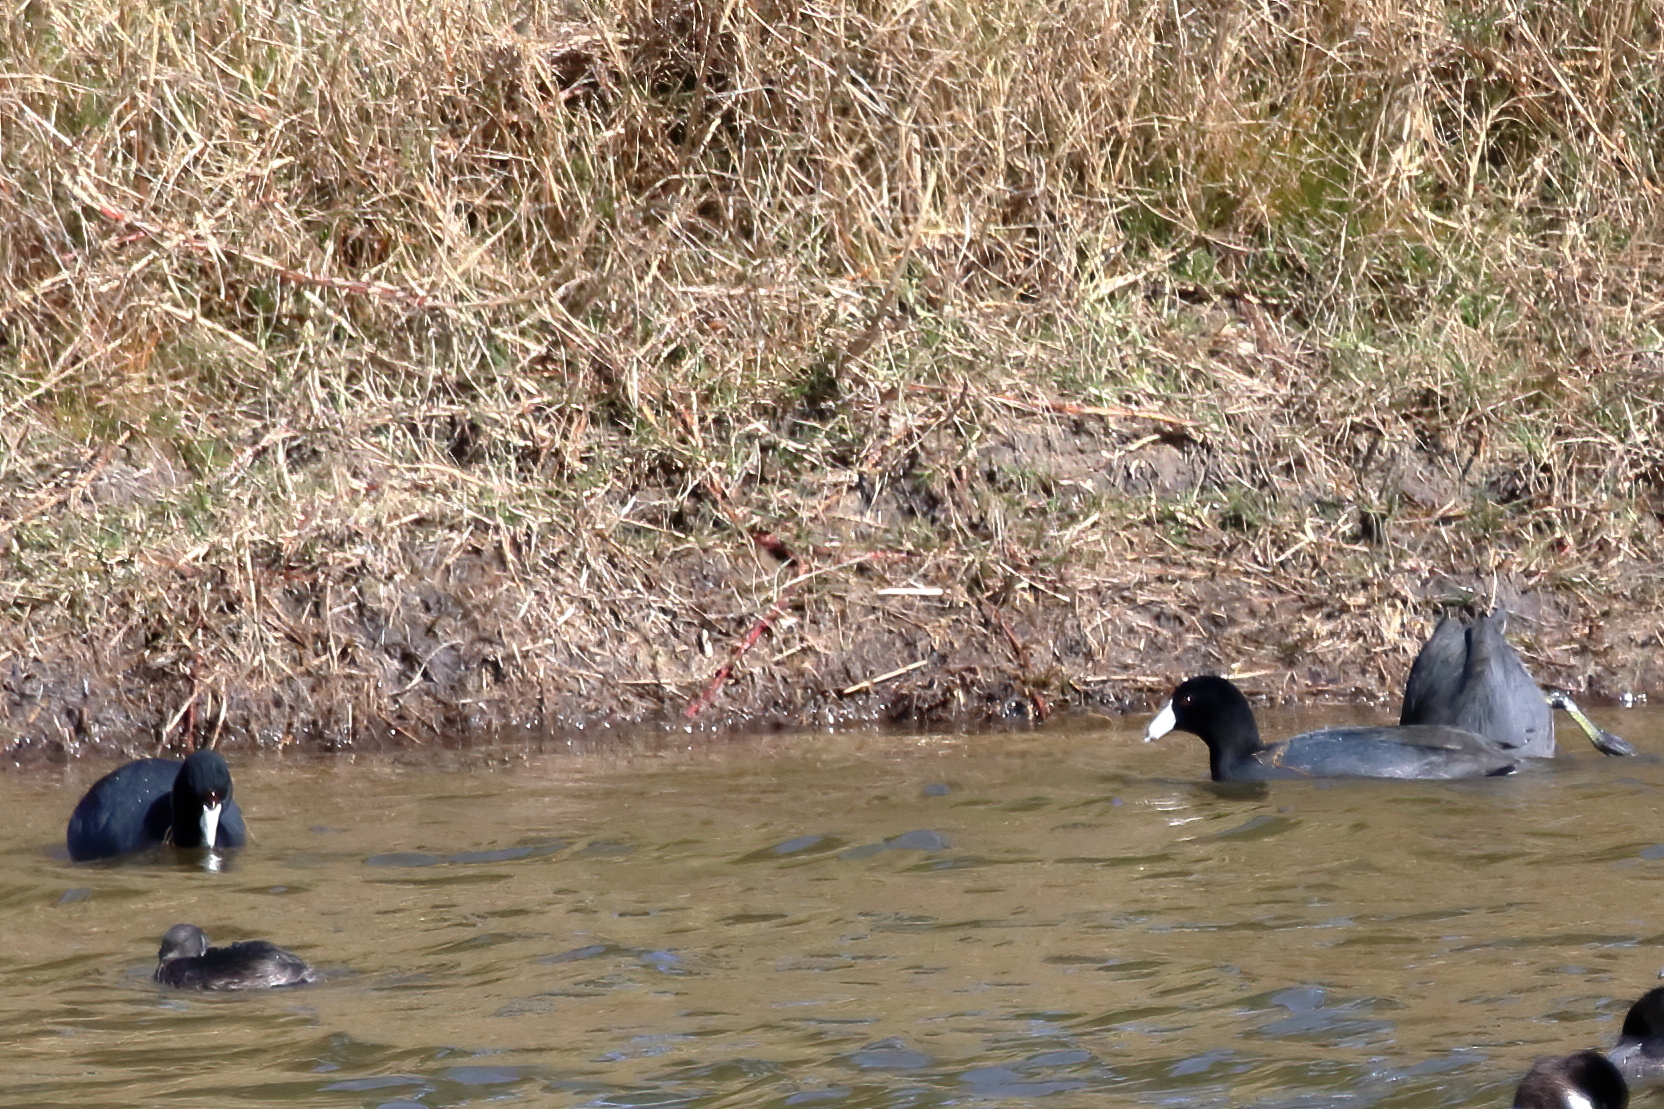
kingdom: Animalia
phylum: Chordata
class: Aves
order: Gruiformes
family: Rallidae
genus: Fulica
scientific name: Fulica americana
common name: American coot
